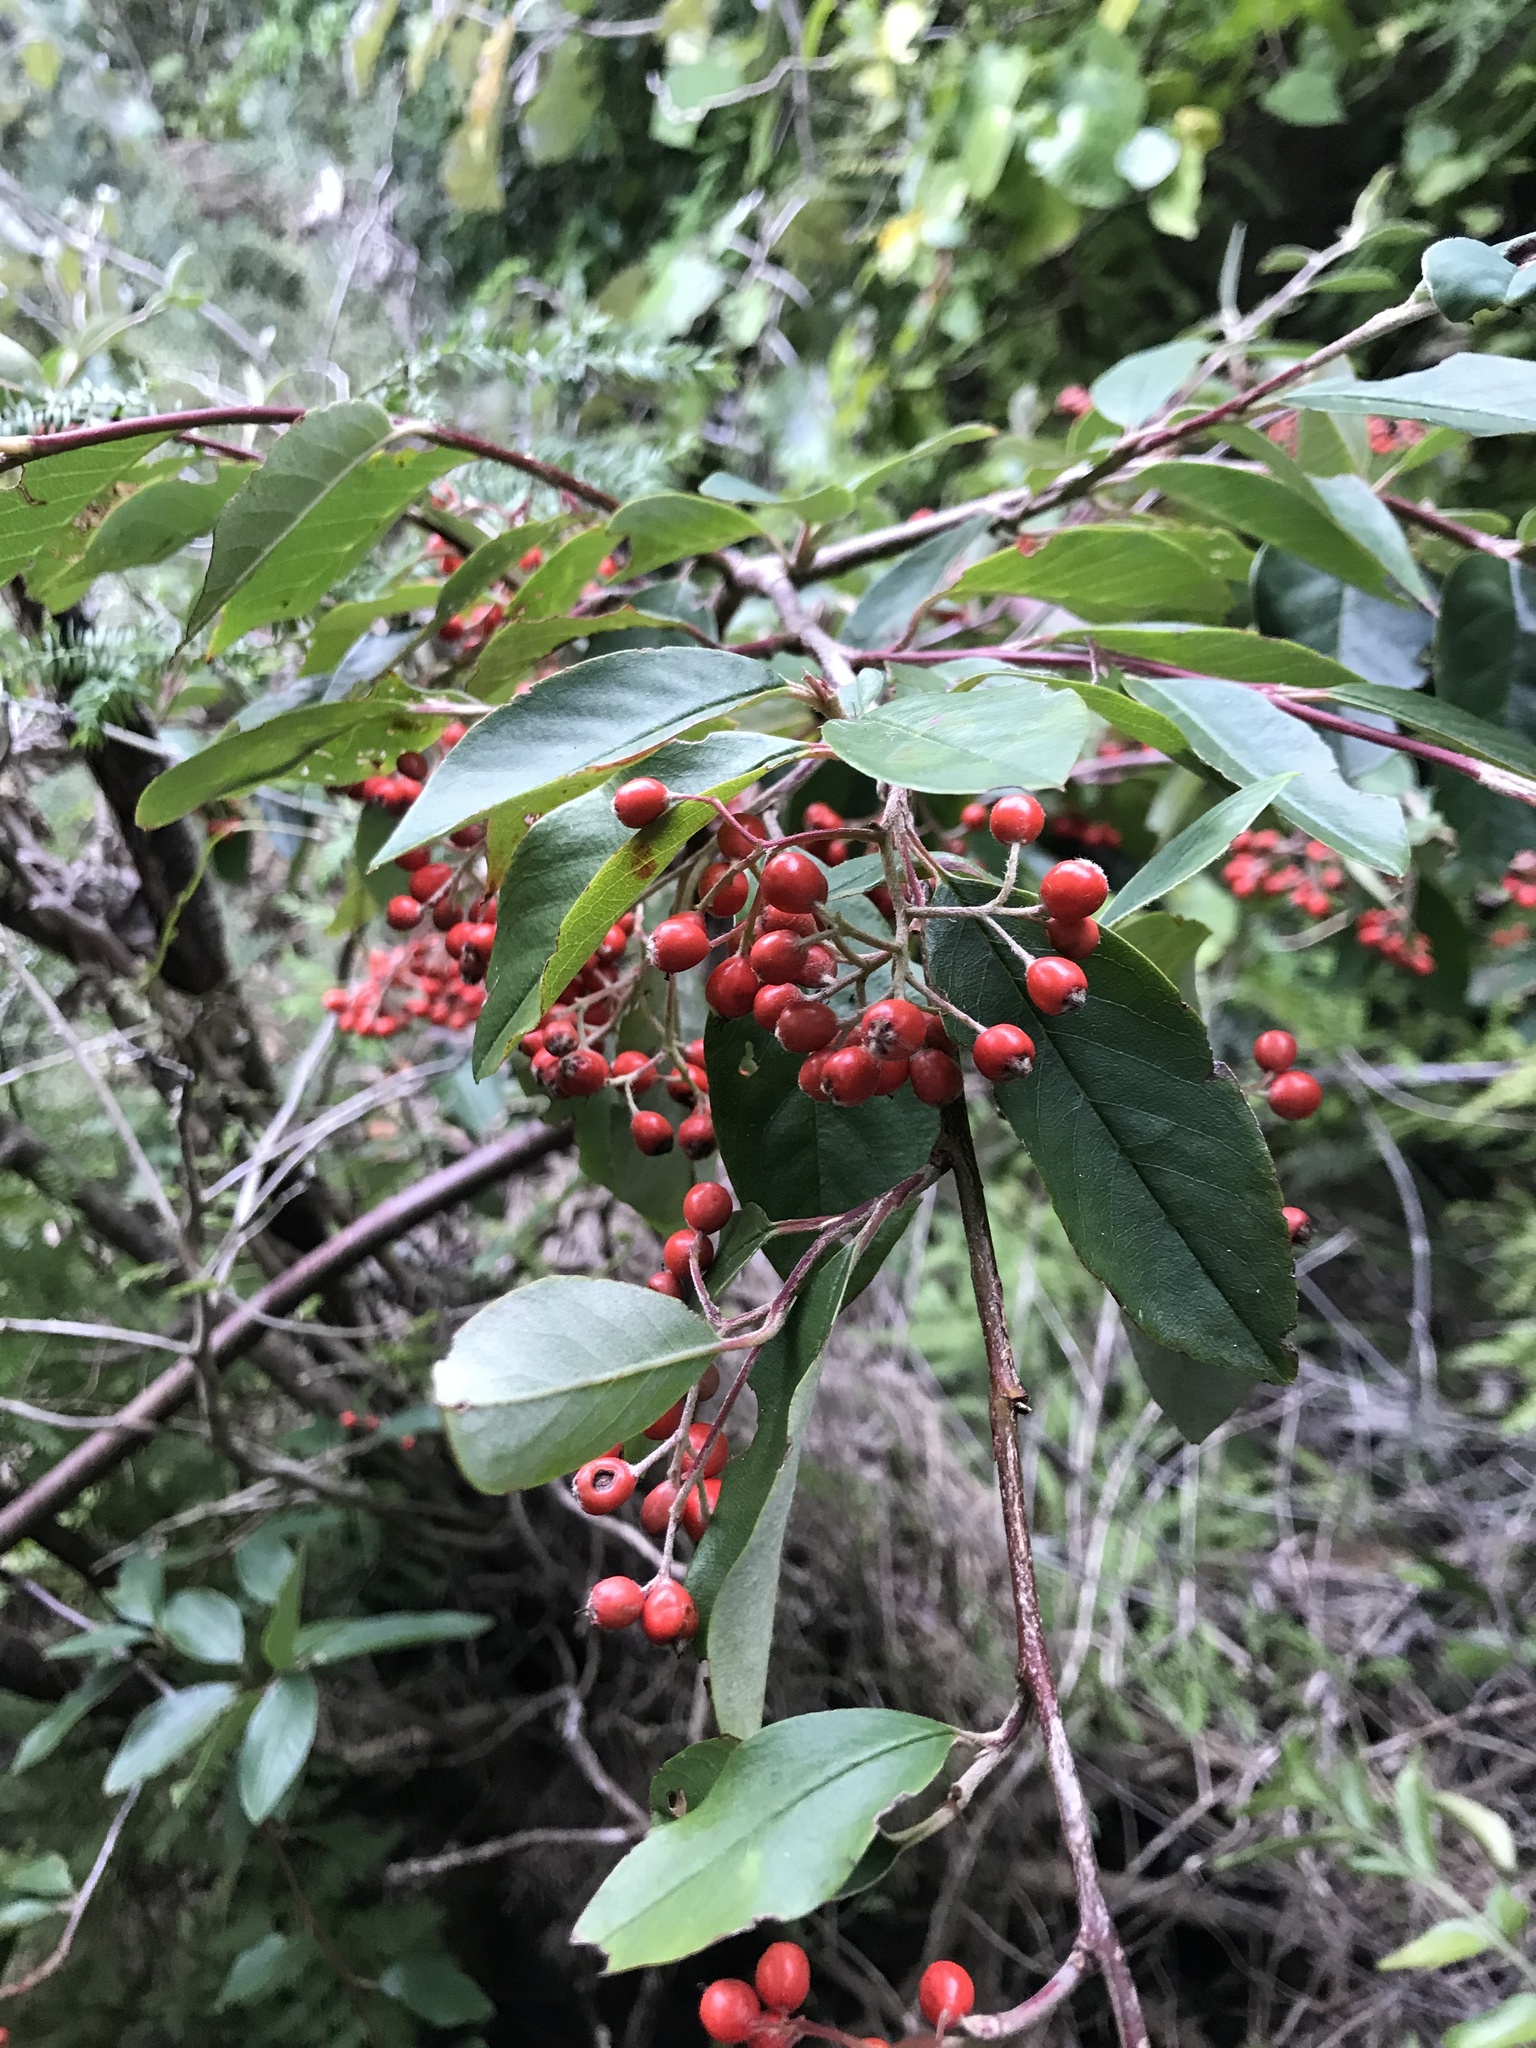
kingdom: Plantae
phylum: Tracheophyta
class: Magnoliopsida
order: Rosales
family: Rosaceae
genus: Cotoneaster
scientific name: Cotoneaster glaucophyllus
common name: Glaucous cotoneaster
